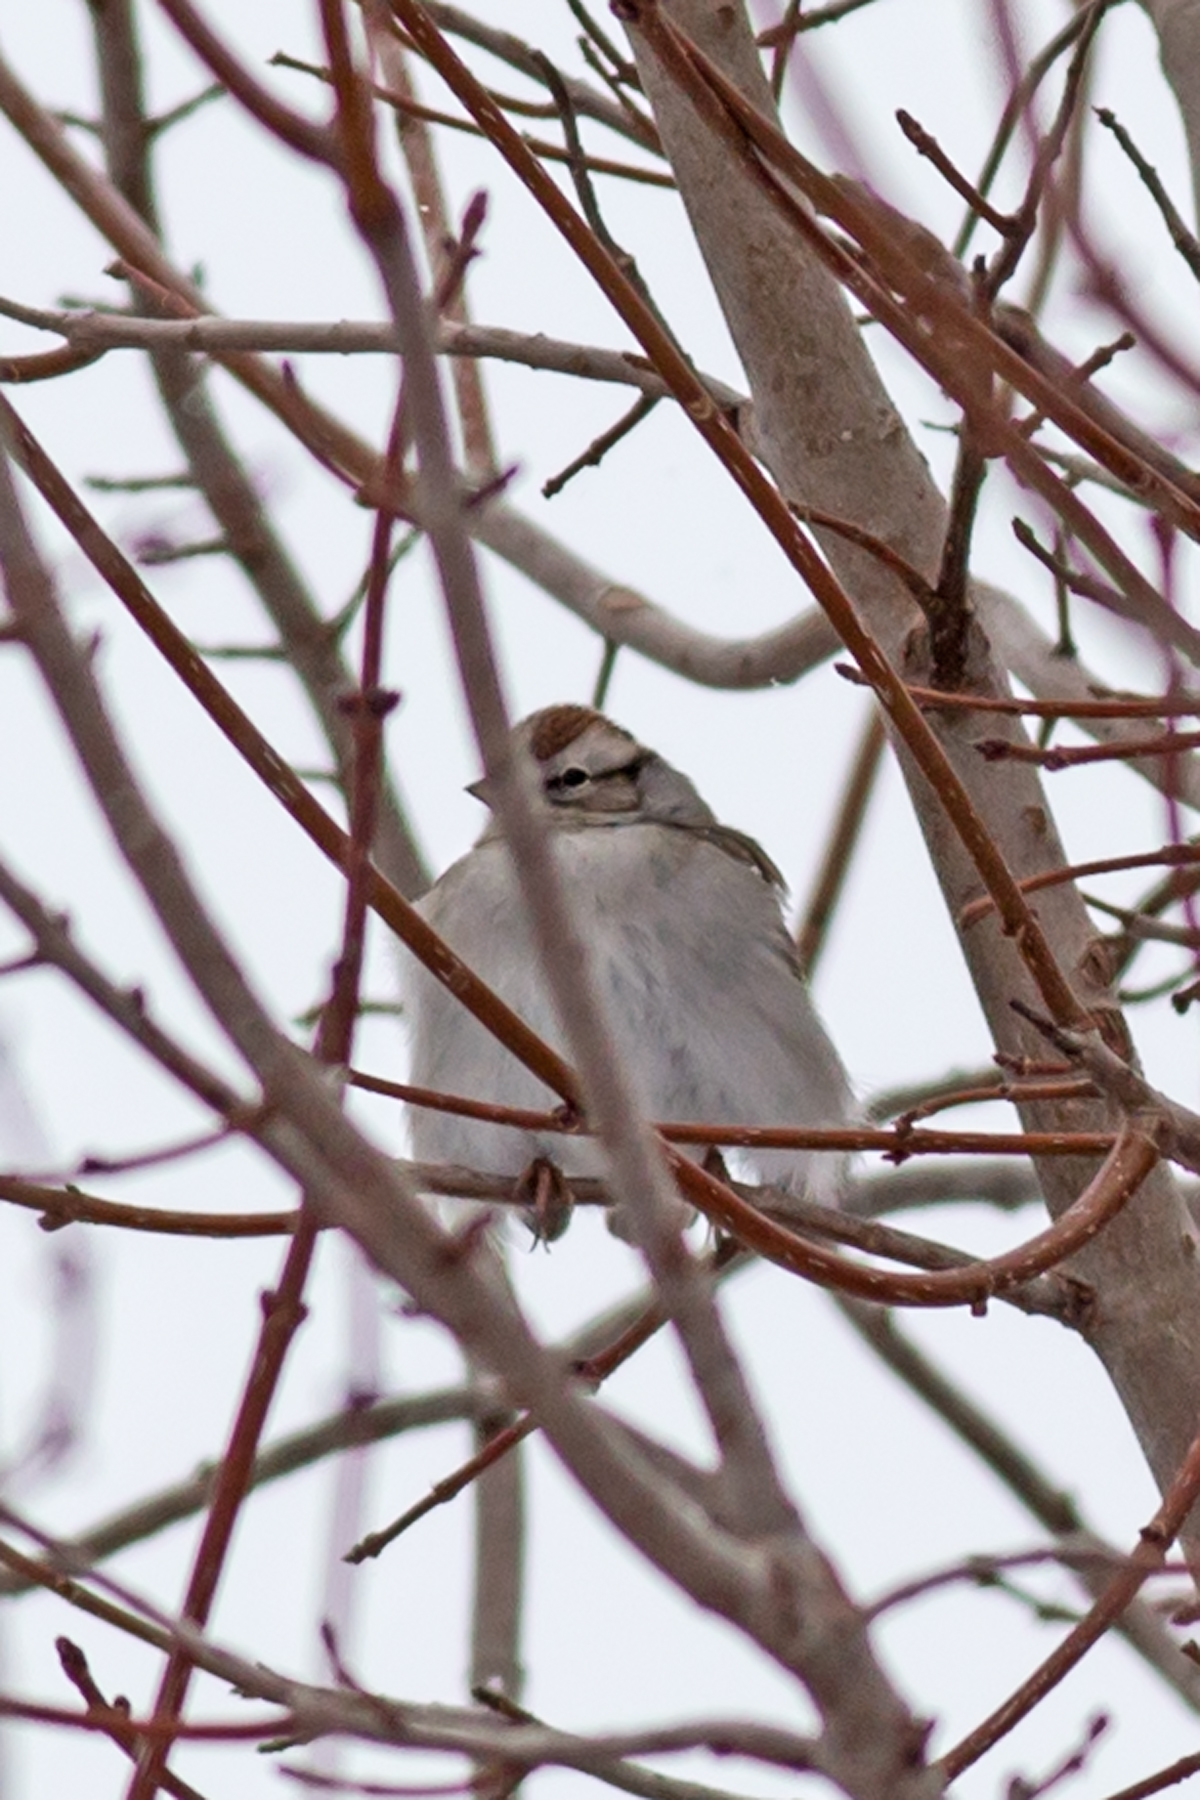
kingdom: Animalia
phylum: Chordata
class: Aves
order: Passeriformes
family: Passerellidae
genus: Spizella
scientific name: Spizella passerina
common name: Chipping sparrow
